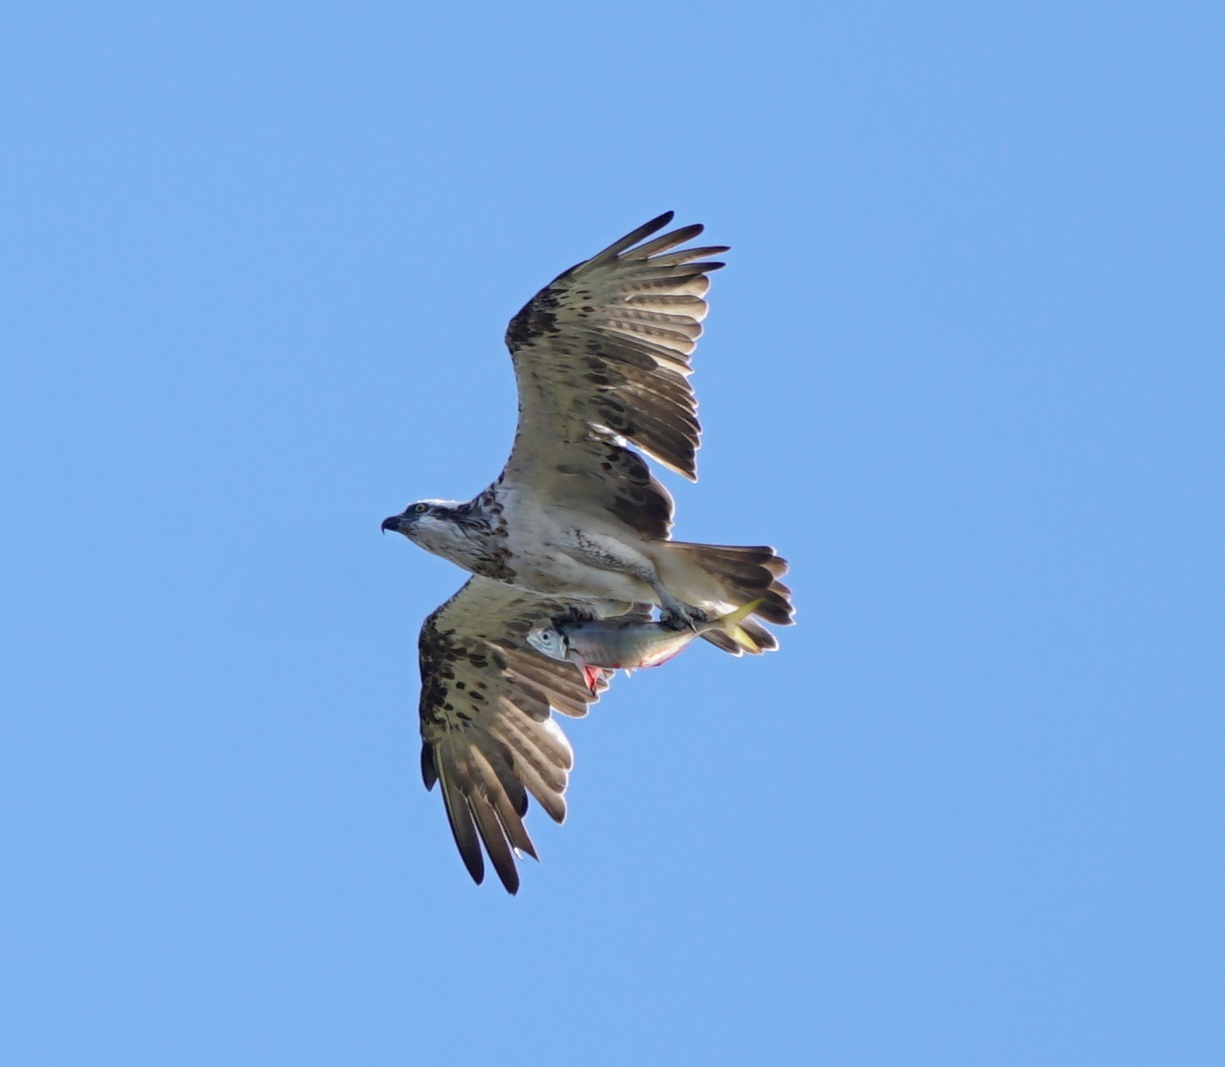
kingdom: Animalia
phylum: Chordata
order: Perciformes
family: Carangidae
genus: Trachurus
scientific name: Trachurus novaezelandiae
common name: Yellowtail horse mackerel
